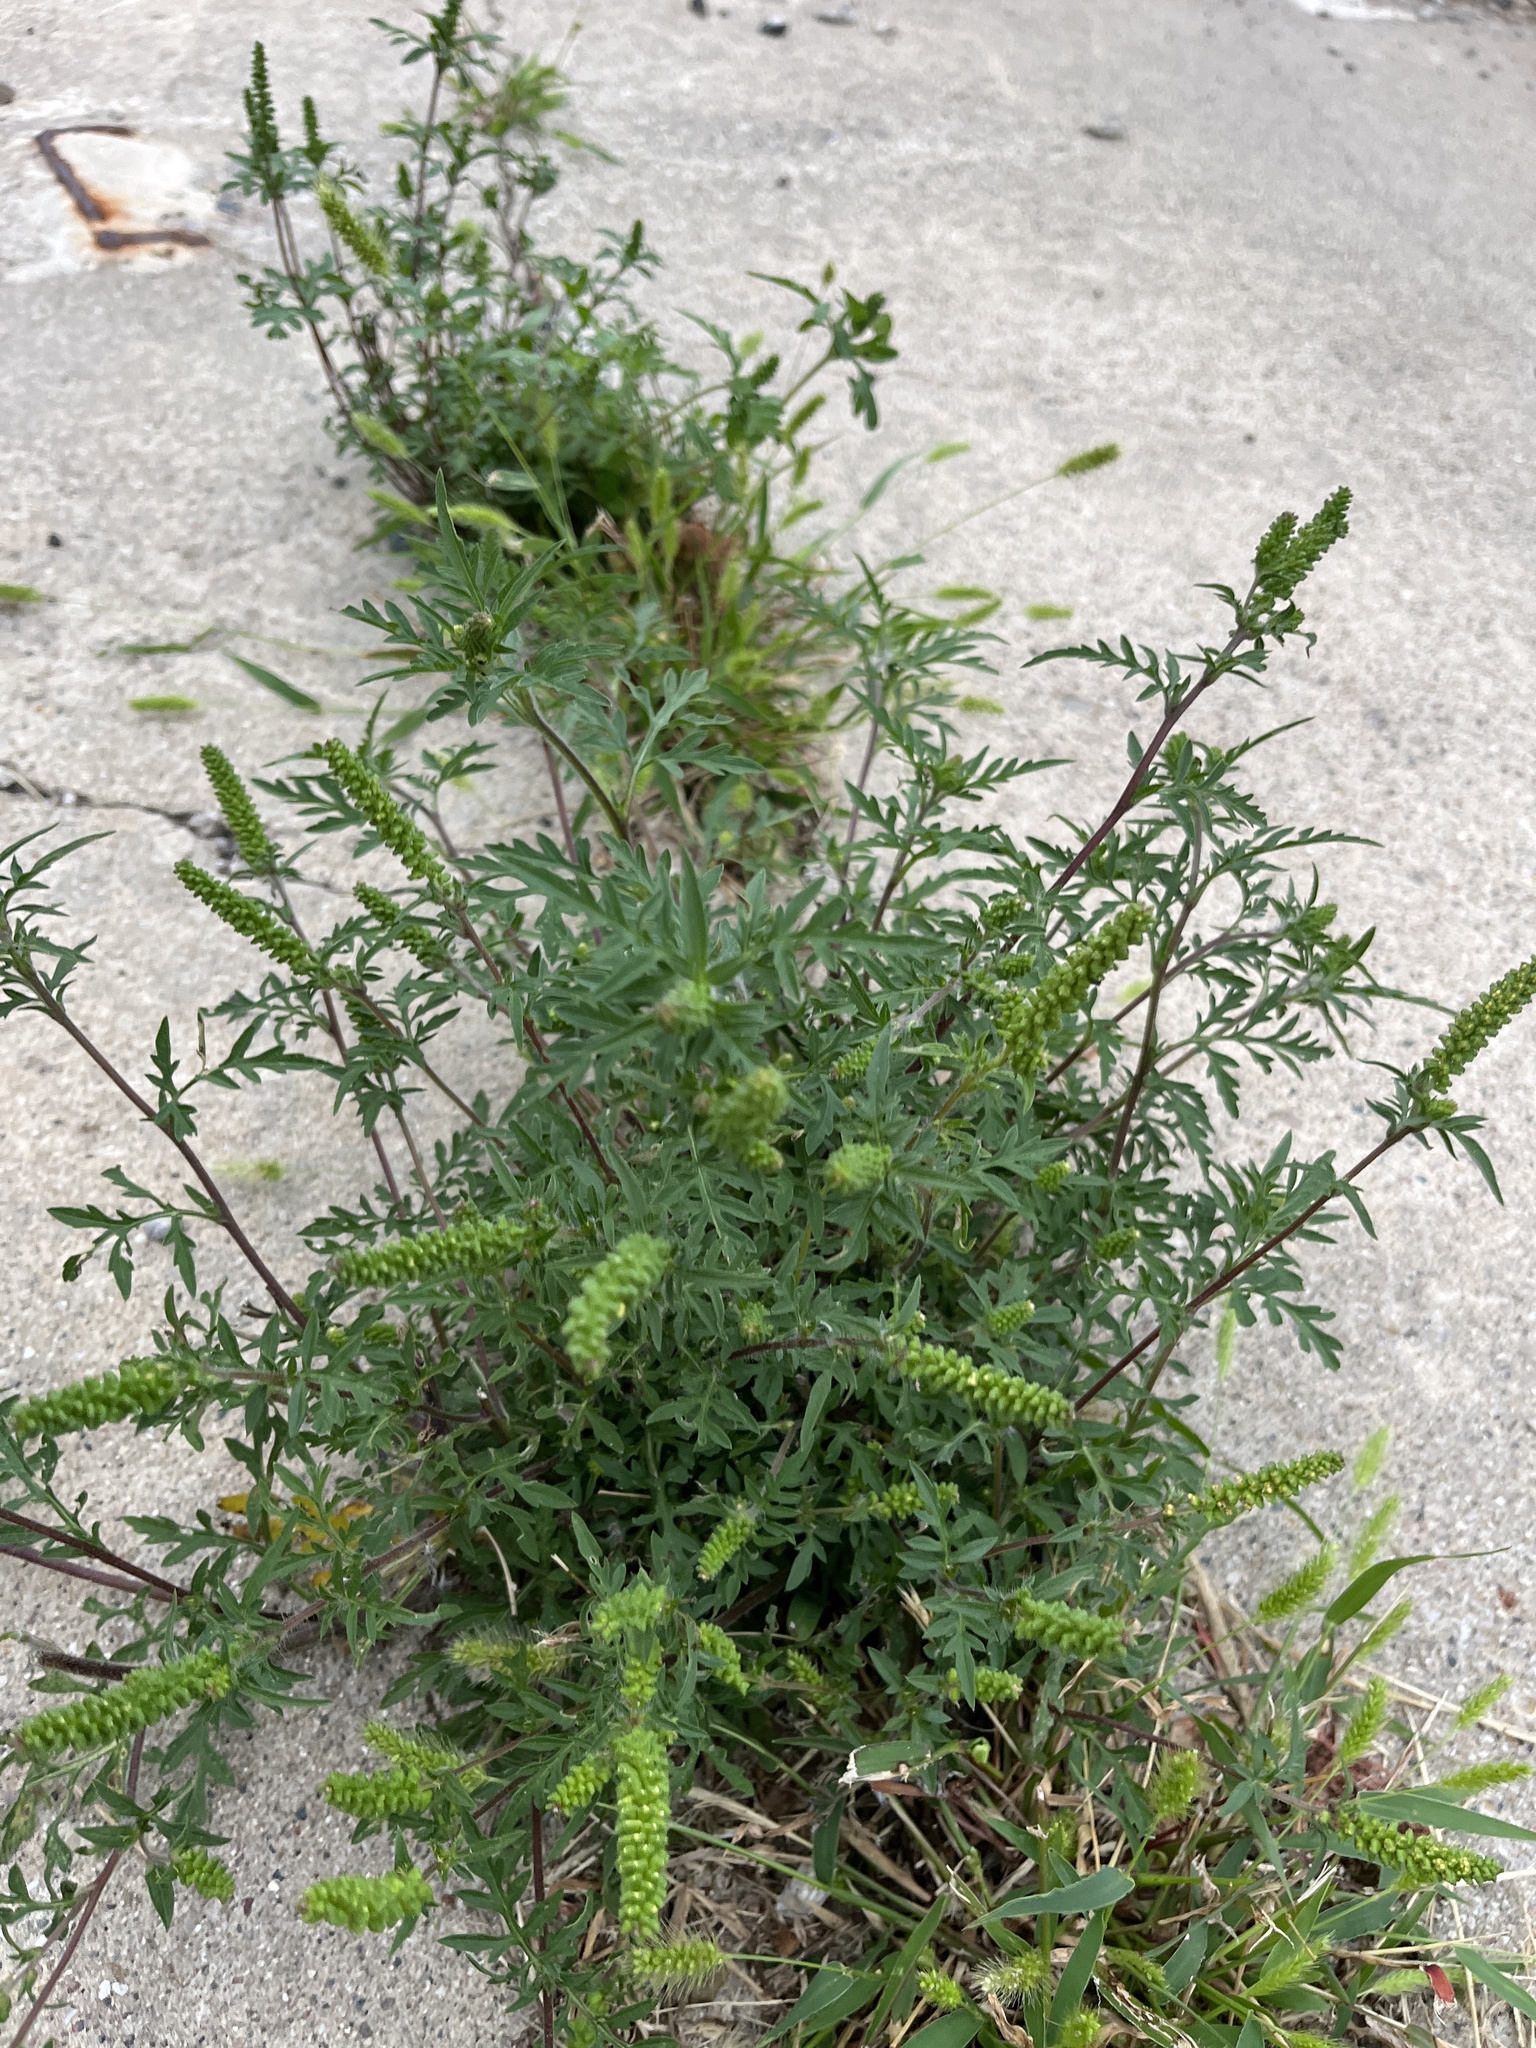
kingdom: Plantae
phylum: Tracheophyta
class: Magnoliopsida
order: Asterales
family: Asteraceae
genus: Ambrosia
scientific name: Ambrosia artemisiifolia
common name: Annual ragweed
